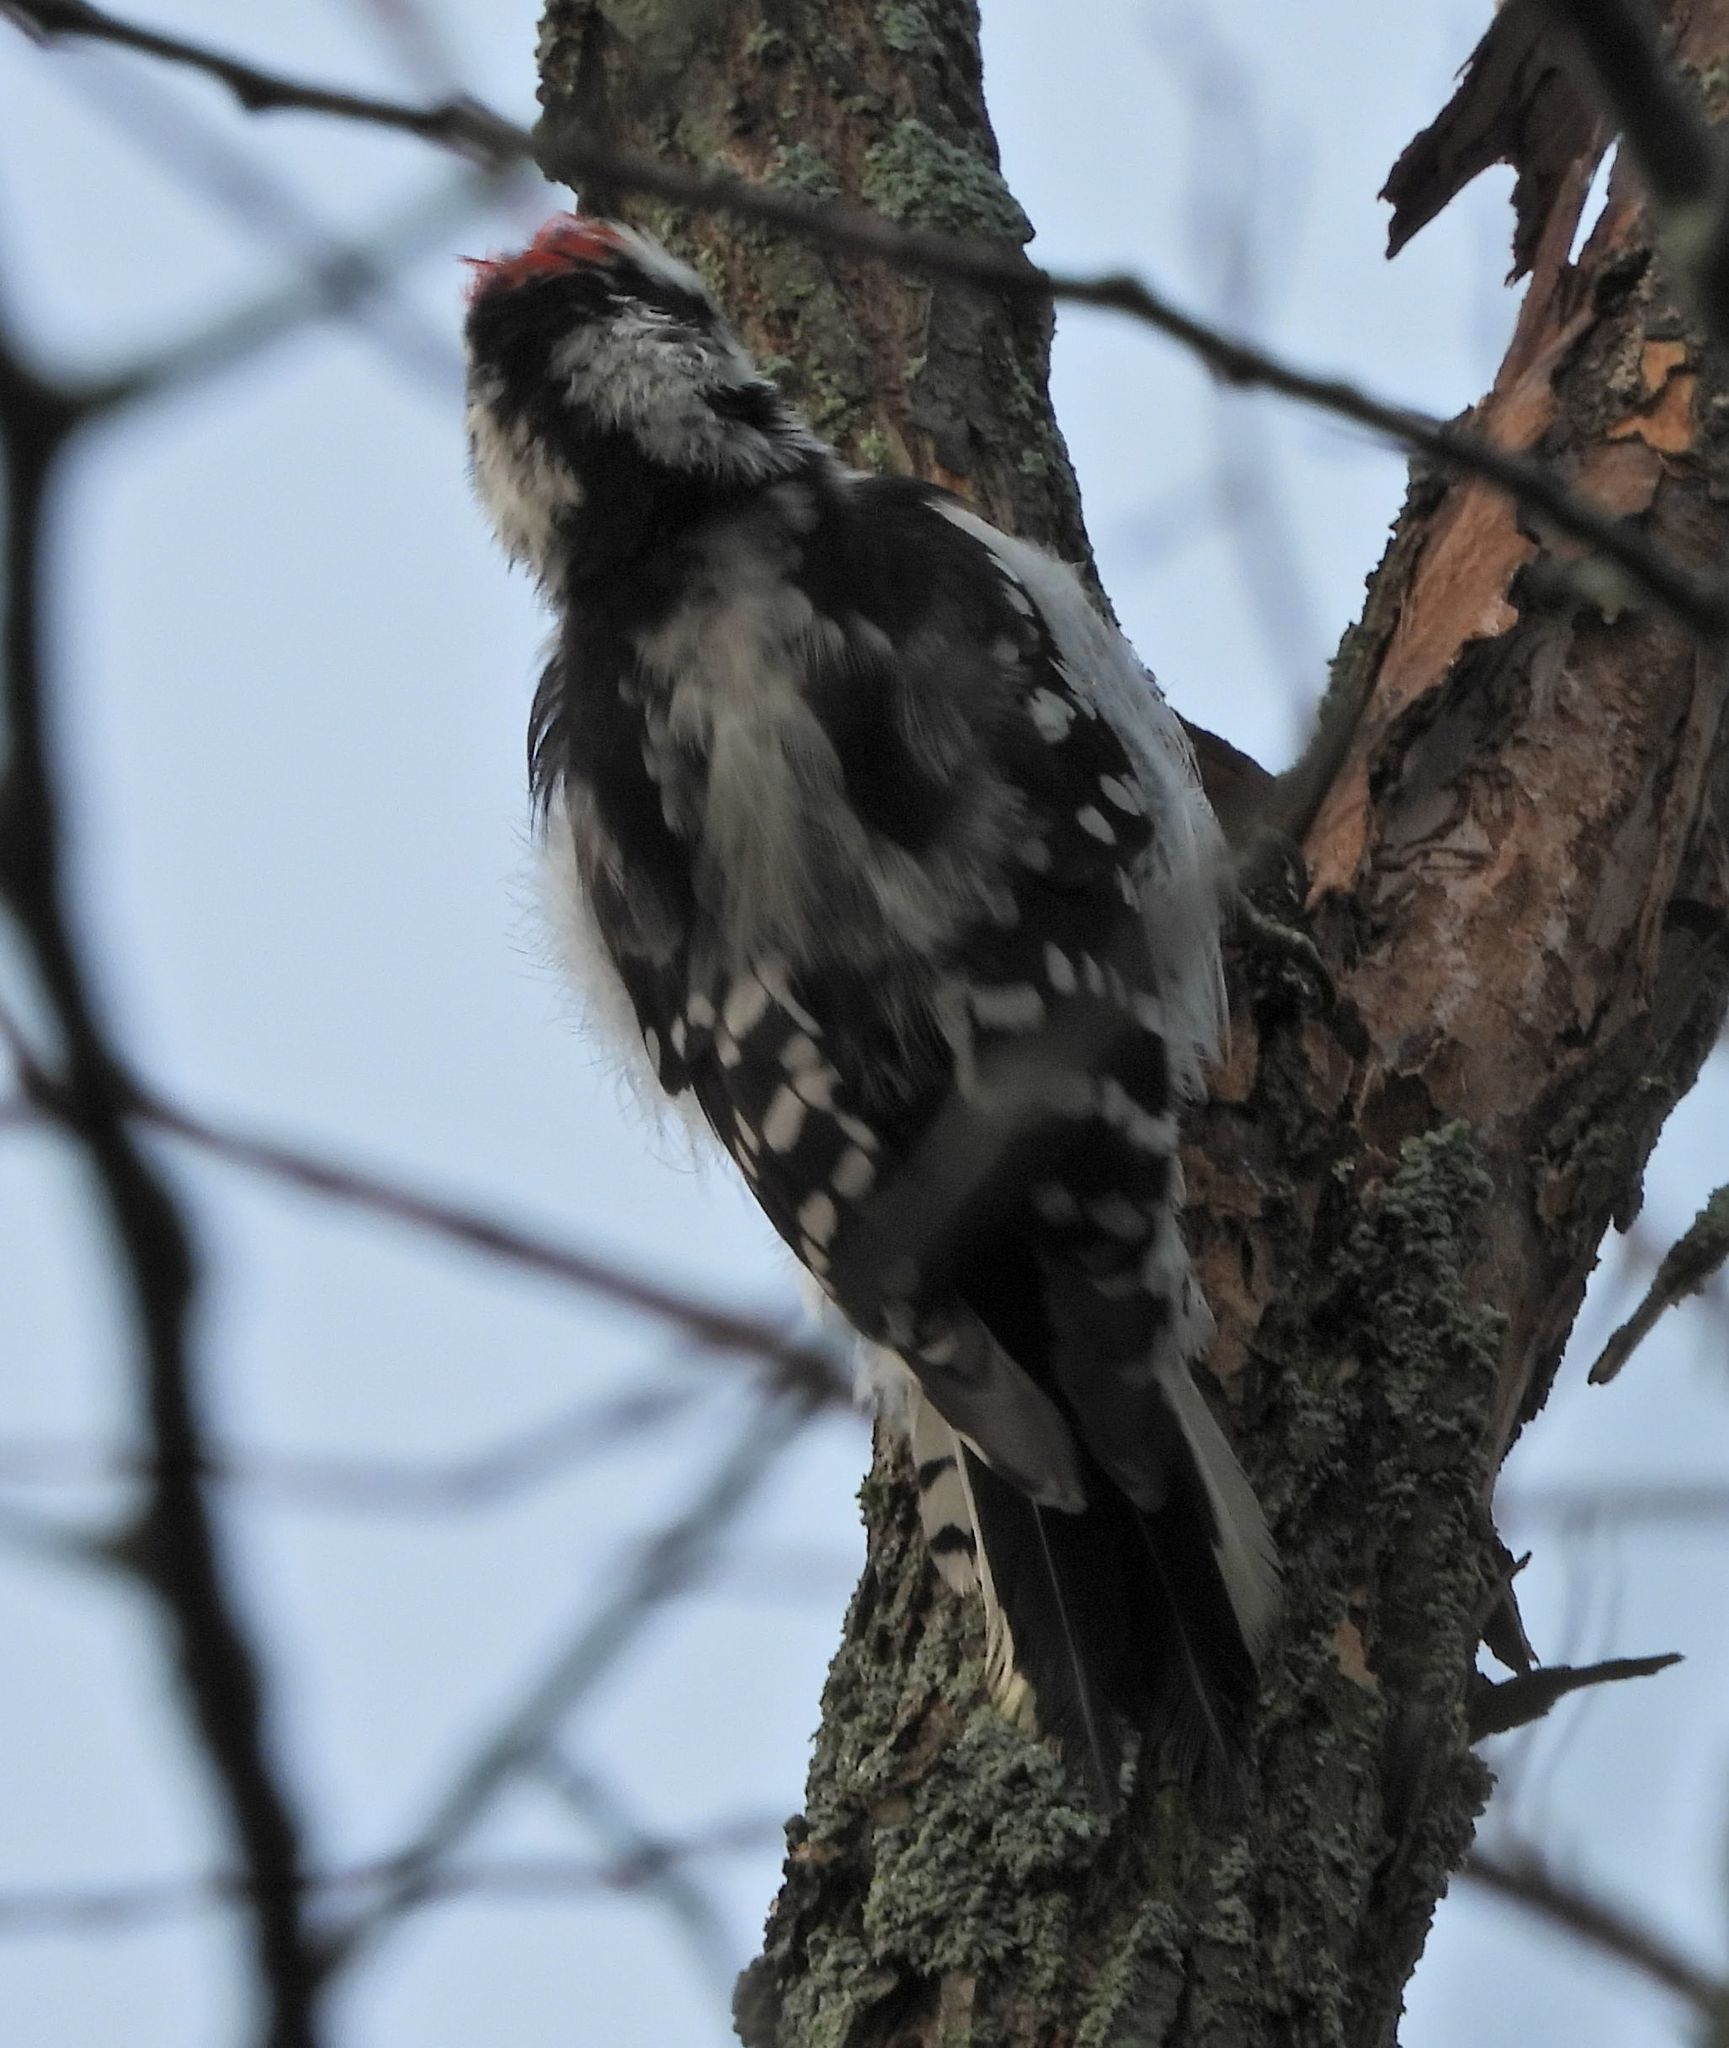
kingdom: Animalia
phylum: Chordata
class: Aves
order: Piciformes
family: Picidae
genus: Dryobates
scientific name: Dryobates pubescens
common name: Downy woodpecker
